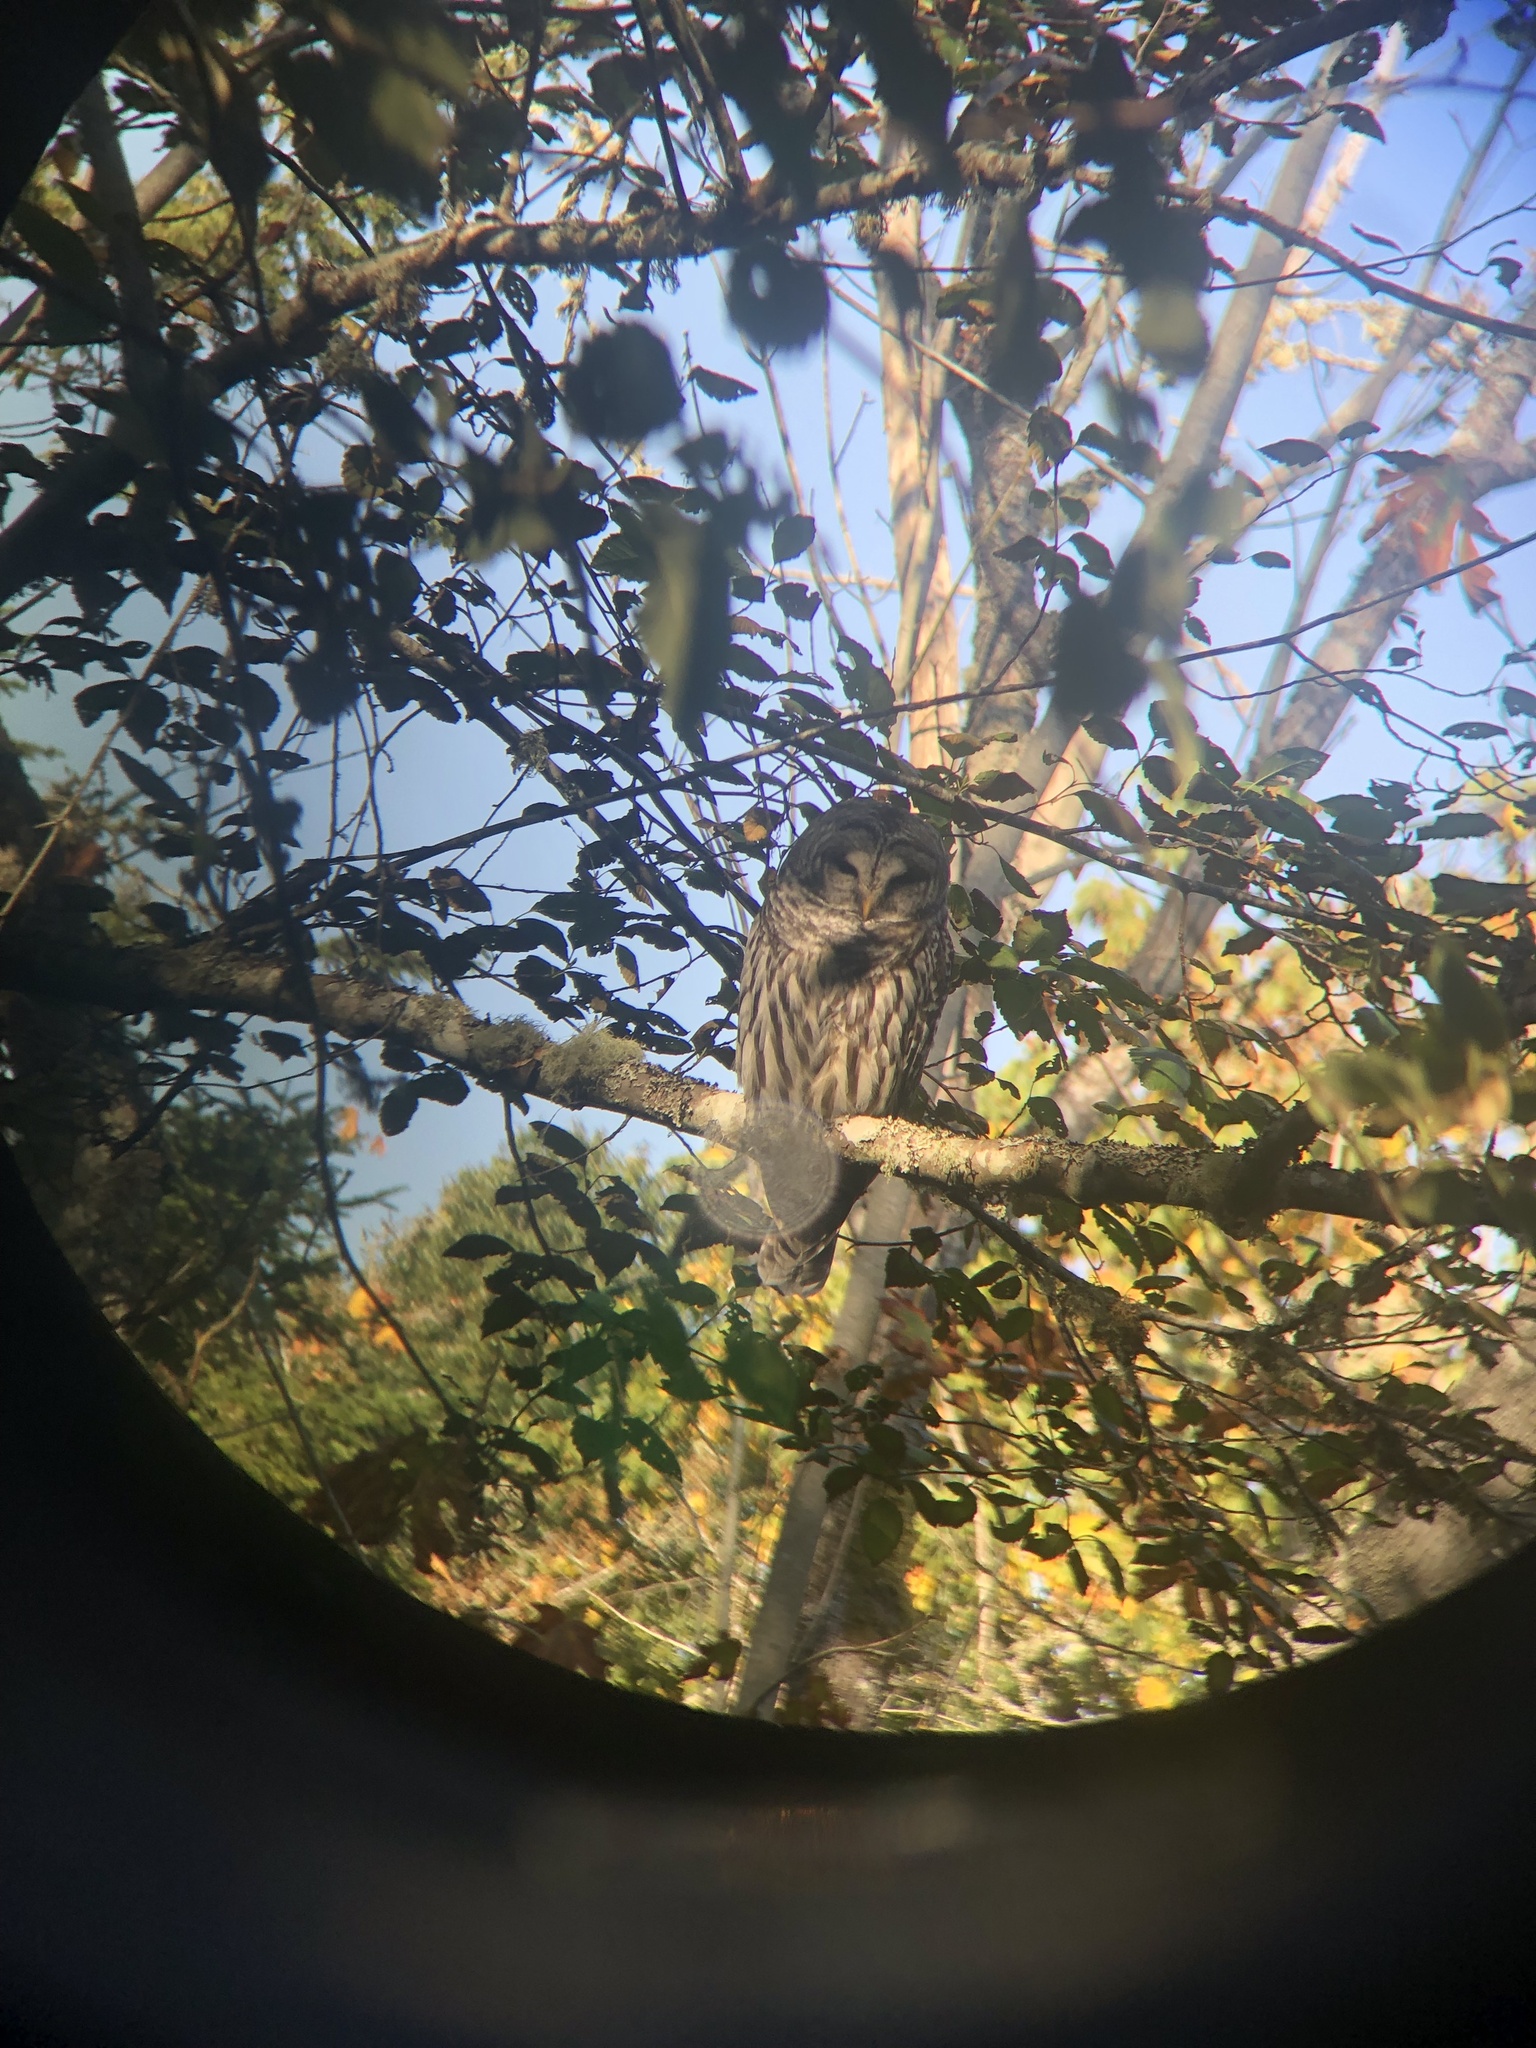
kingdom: Animalia
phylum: Chordata
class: Aves
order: Strigiformes
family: Strigidae
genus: Strix
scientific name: Strix varia
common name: Barred owl
